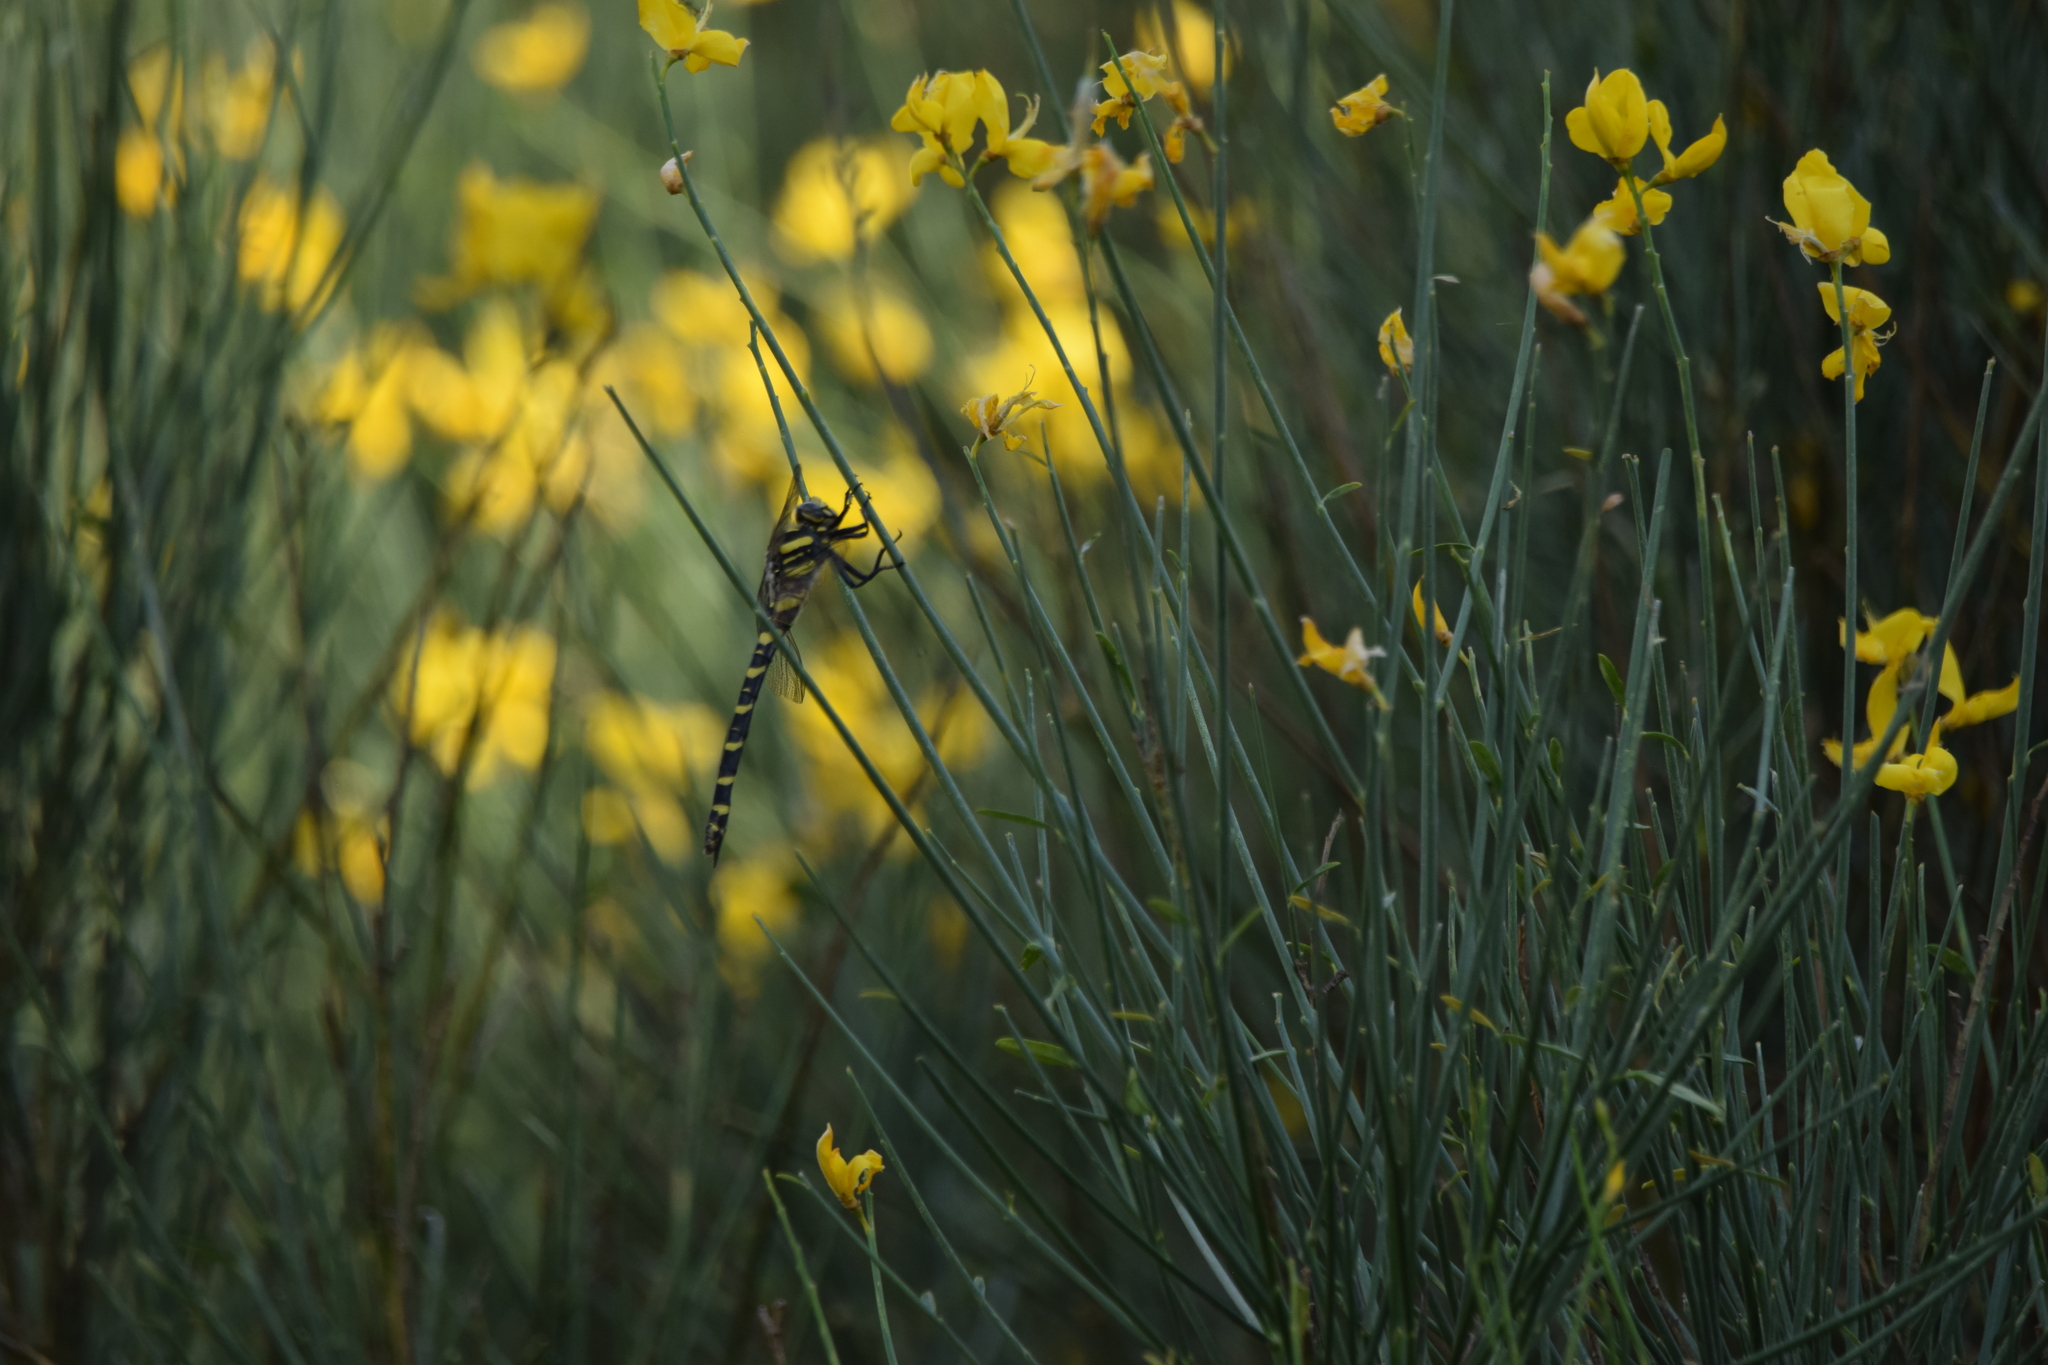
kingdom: Animalia
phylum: Arthropoda
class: Insecta
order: Odonata
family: Cordulegastridae
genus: Cordulegaster
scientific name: Cordulegaster boltonii
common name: Golden-ringed dragonfly
